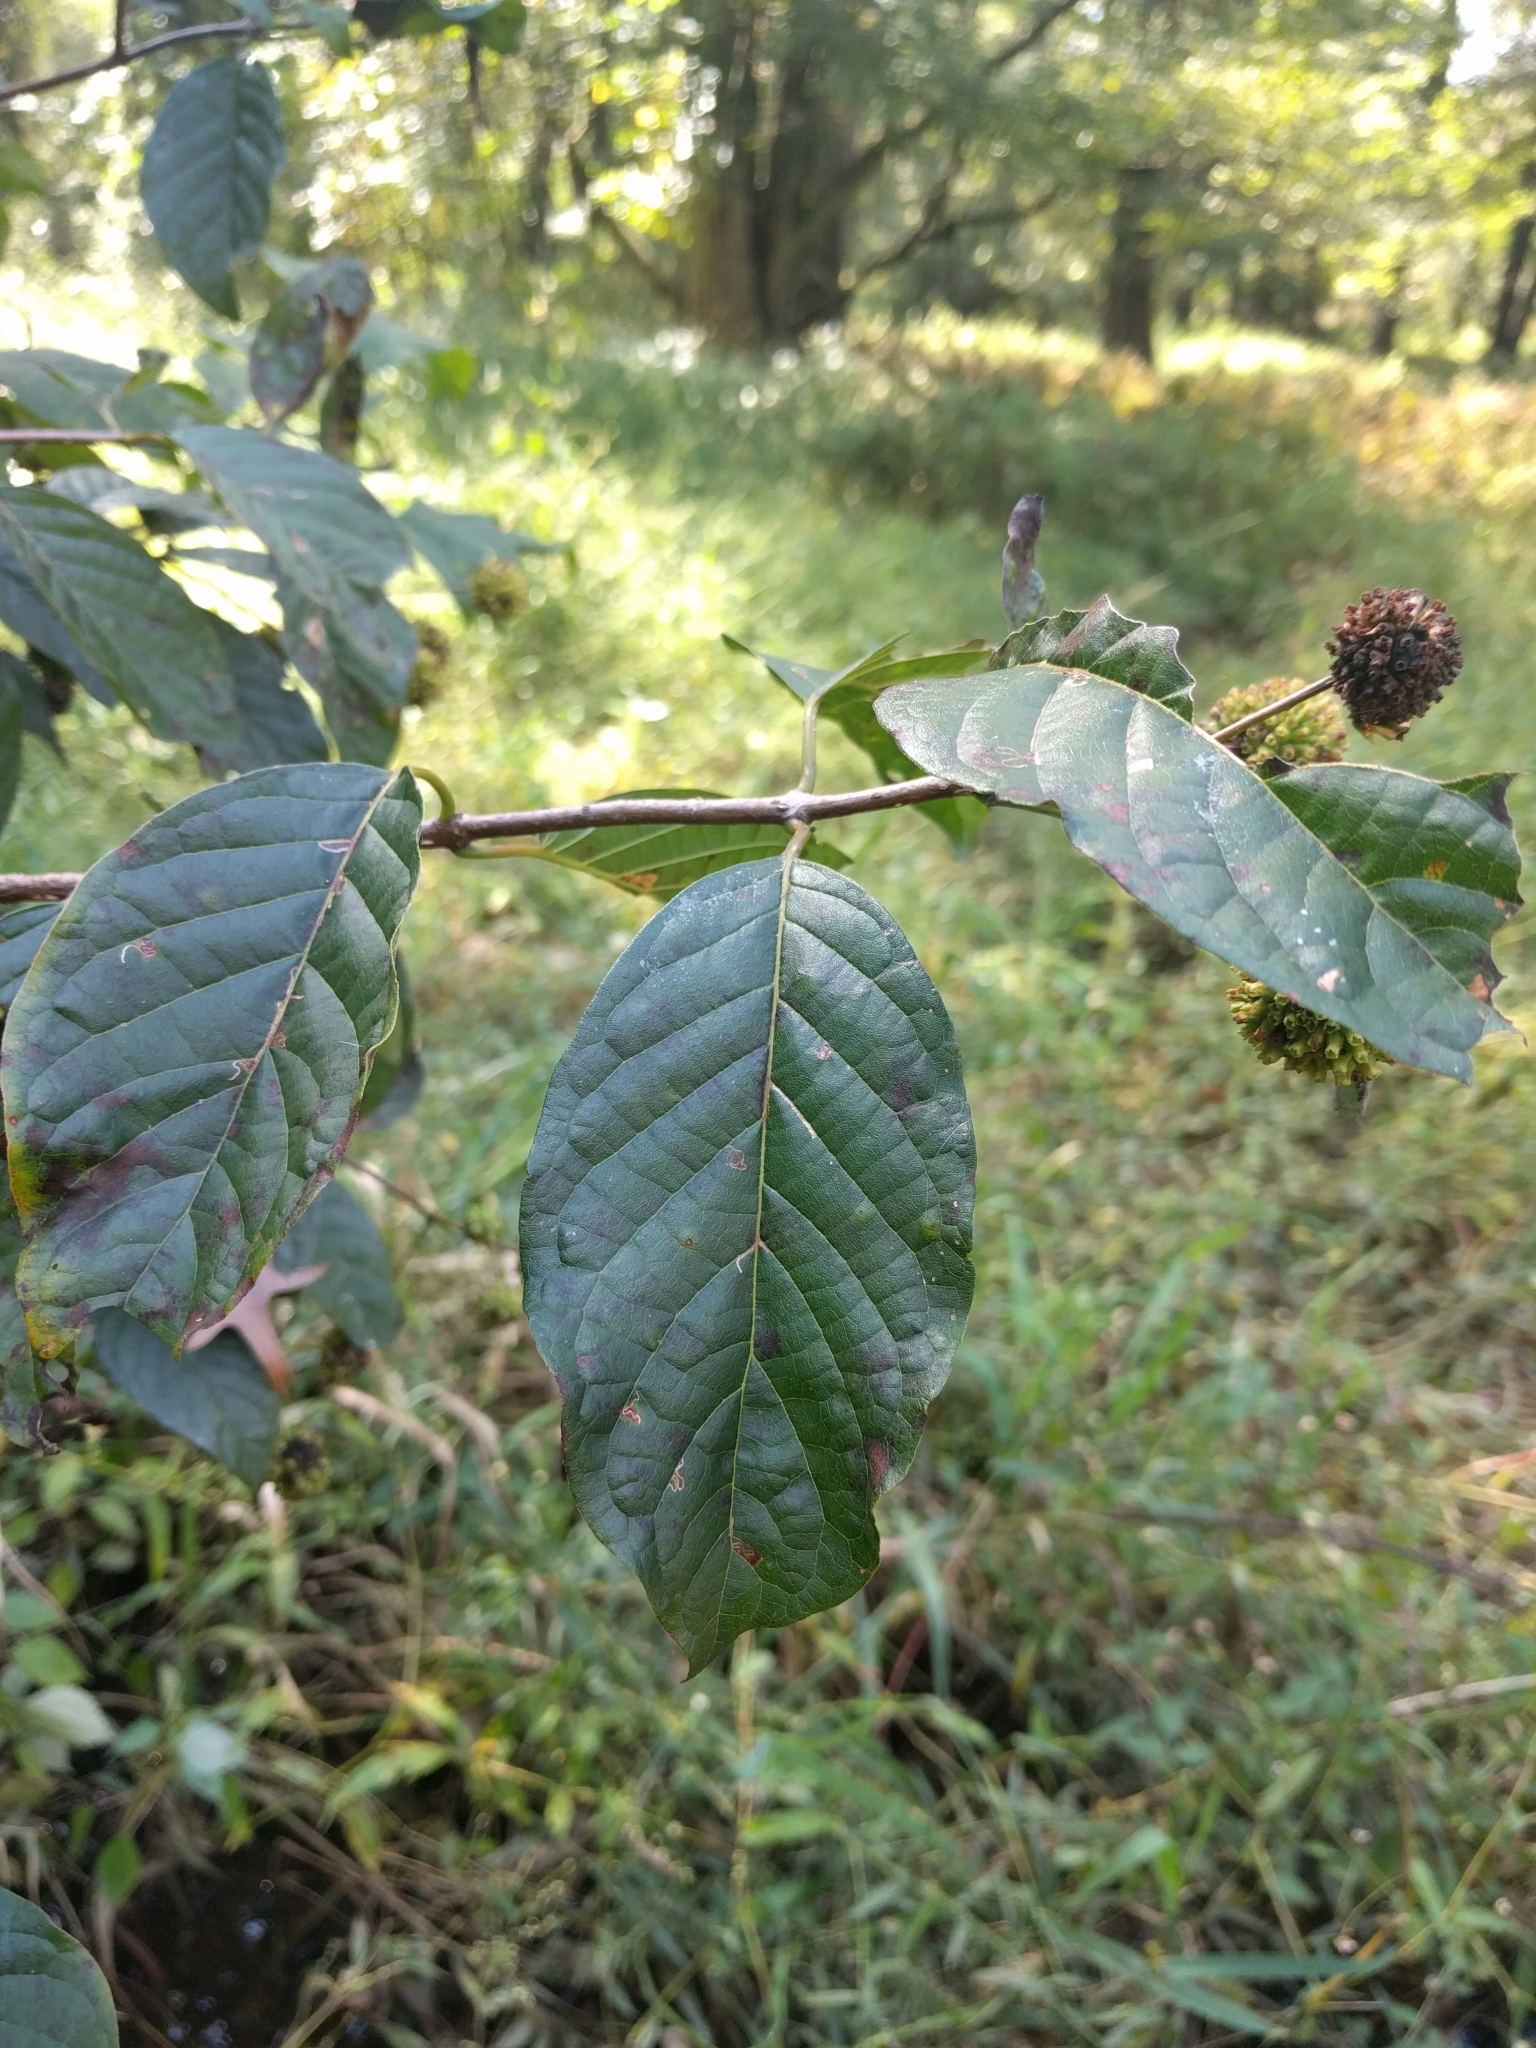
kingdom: Plantae
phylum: Tracheophyta
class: Magnoliopsida
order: Gentianales
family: Rubiaceae
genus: Cephalanthus
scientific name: Cephalanthus occidentalis
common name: Button-willow
